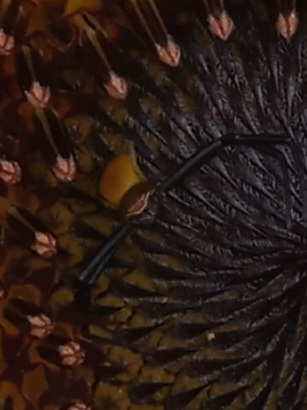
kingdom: Animalia
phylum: Arthropoda
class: Arachnida
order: Araneae
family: Thomisidae
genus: Misumenoides
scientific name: Misumenoides formosipes
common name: White-banded crab spider
